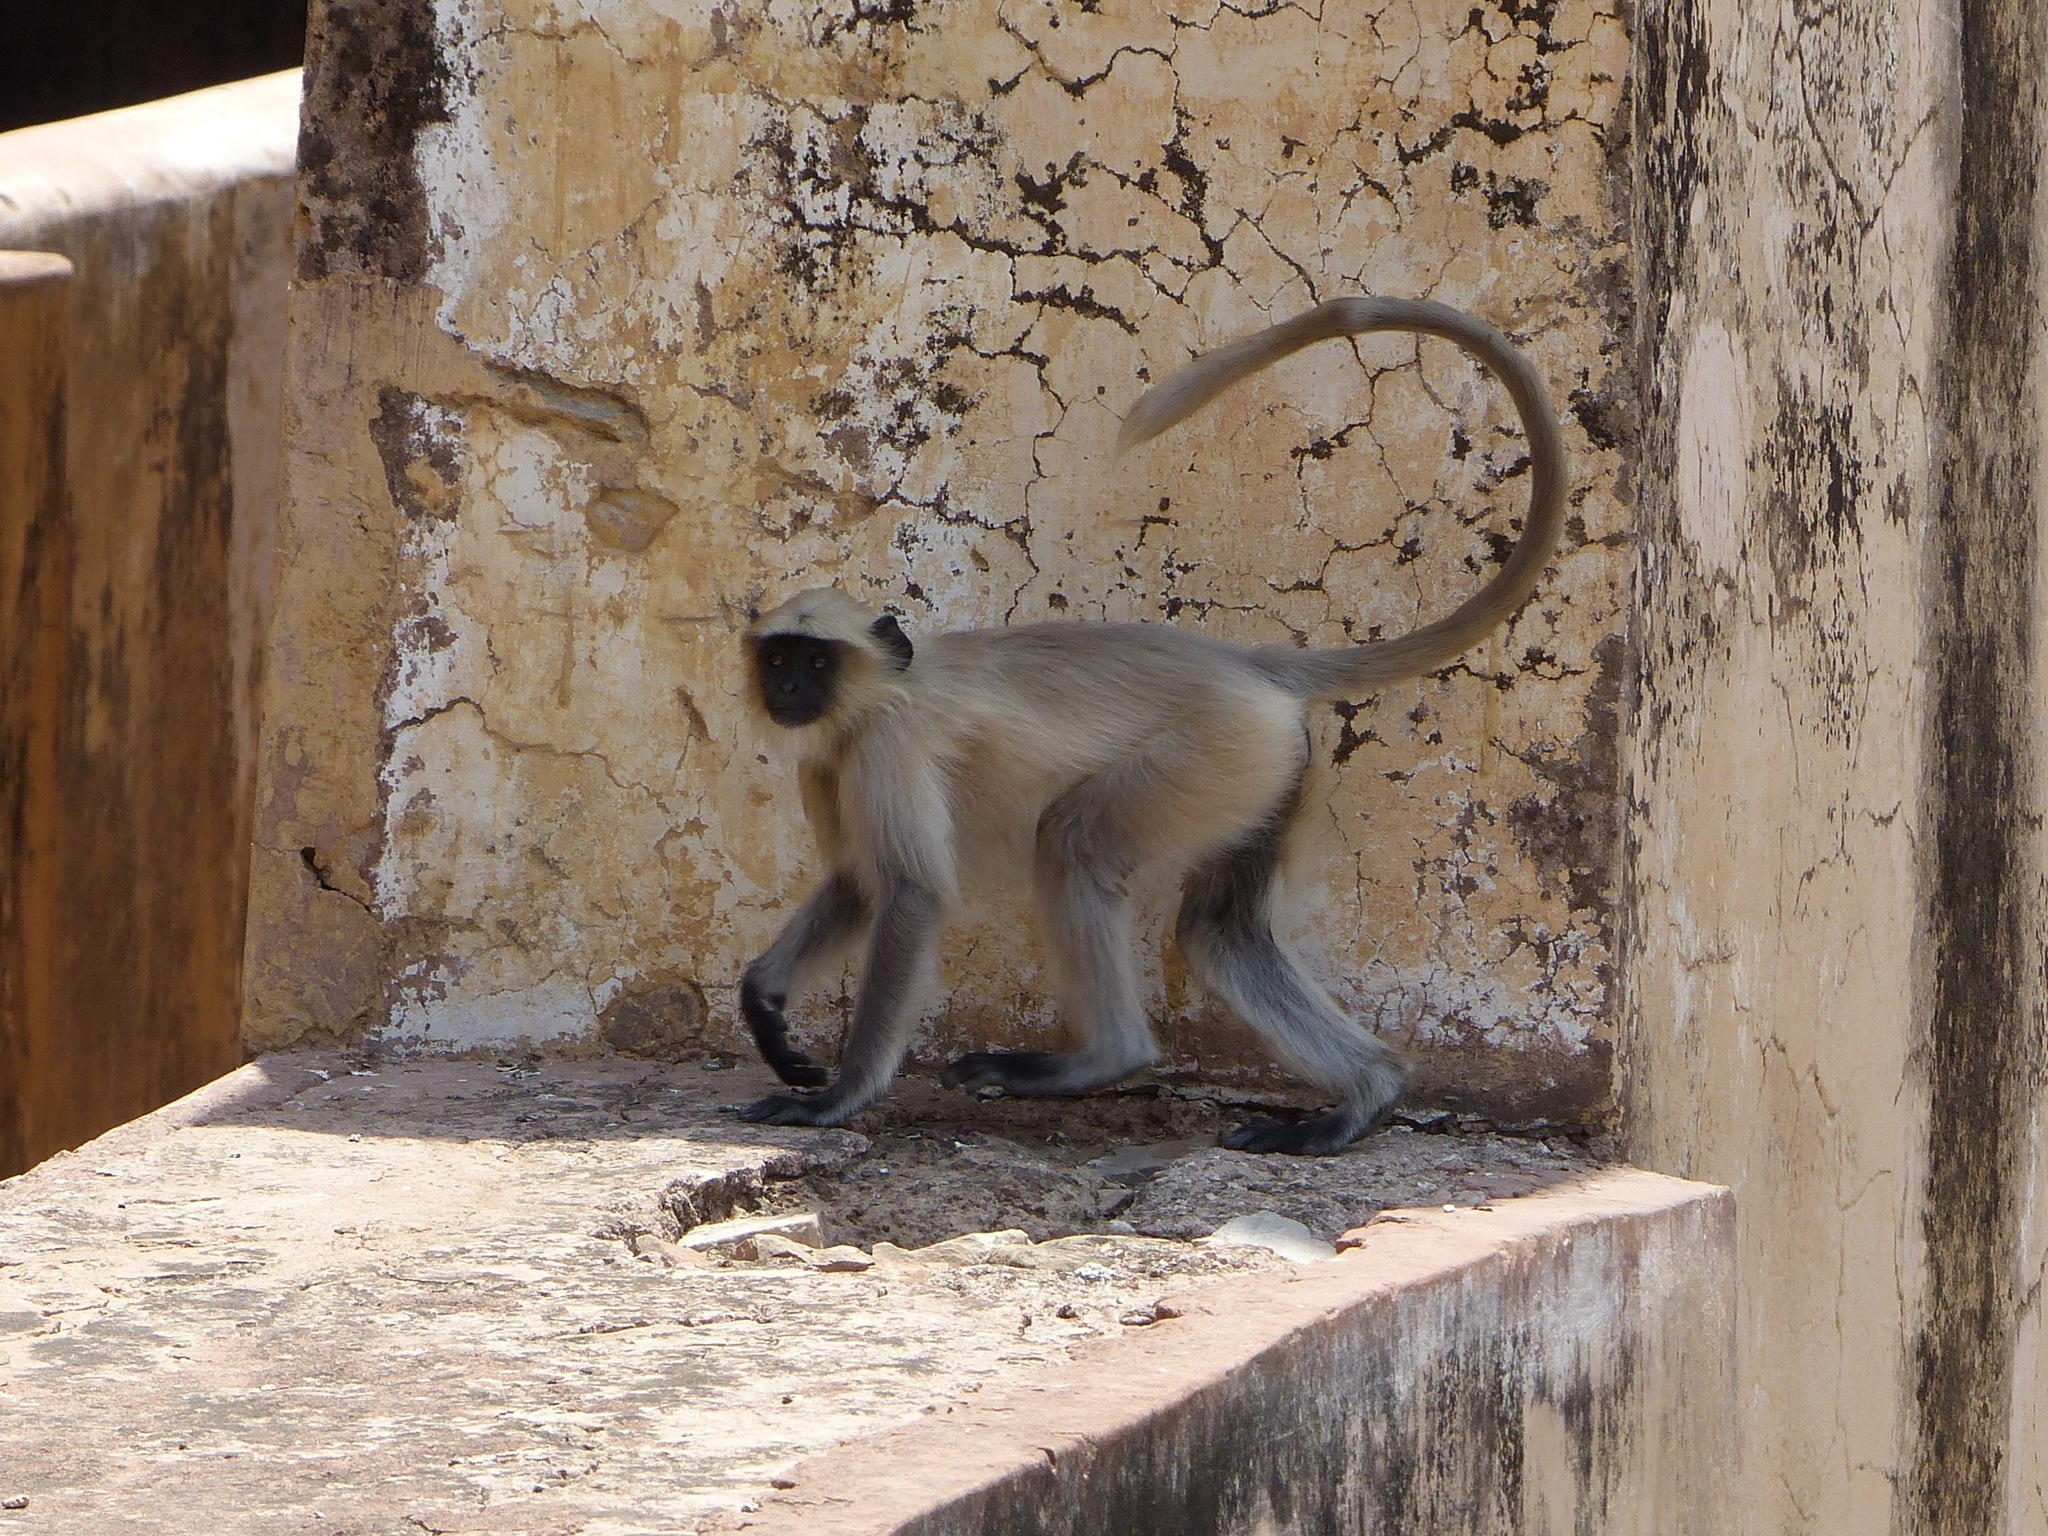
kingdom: Animalia
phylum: Chordata
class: Mammalia
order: Primates
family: Cercopithecidae
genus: Semnopithecus
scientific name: Semnopithecus entellus
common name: Northern plains gray langur
